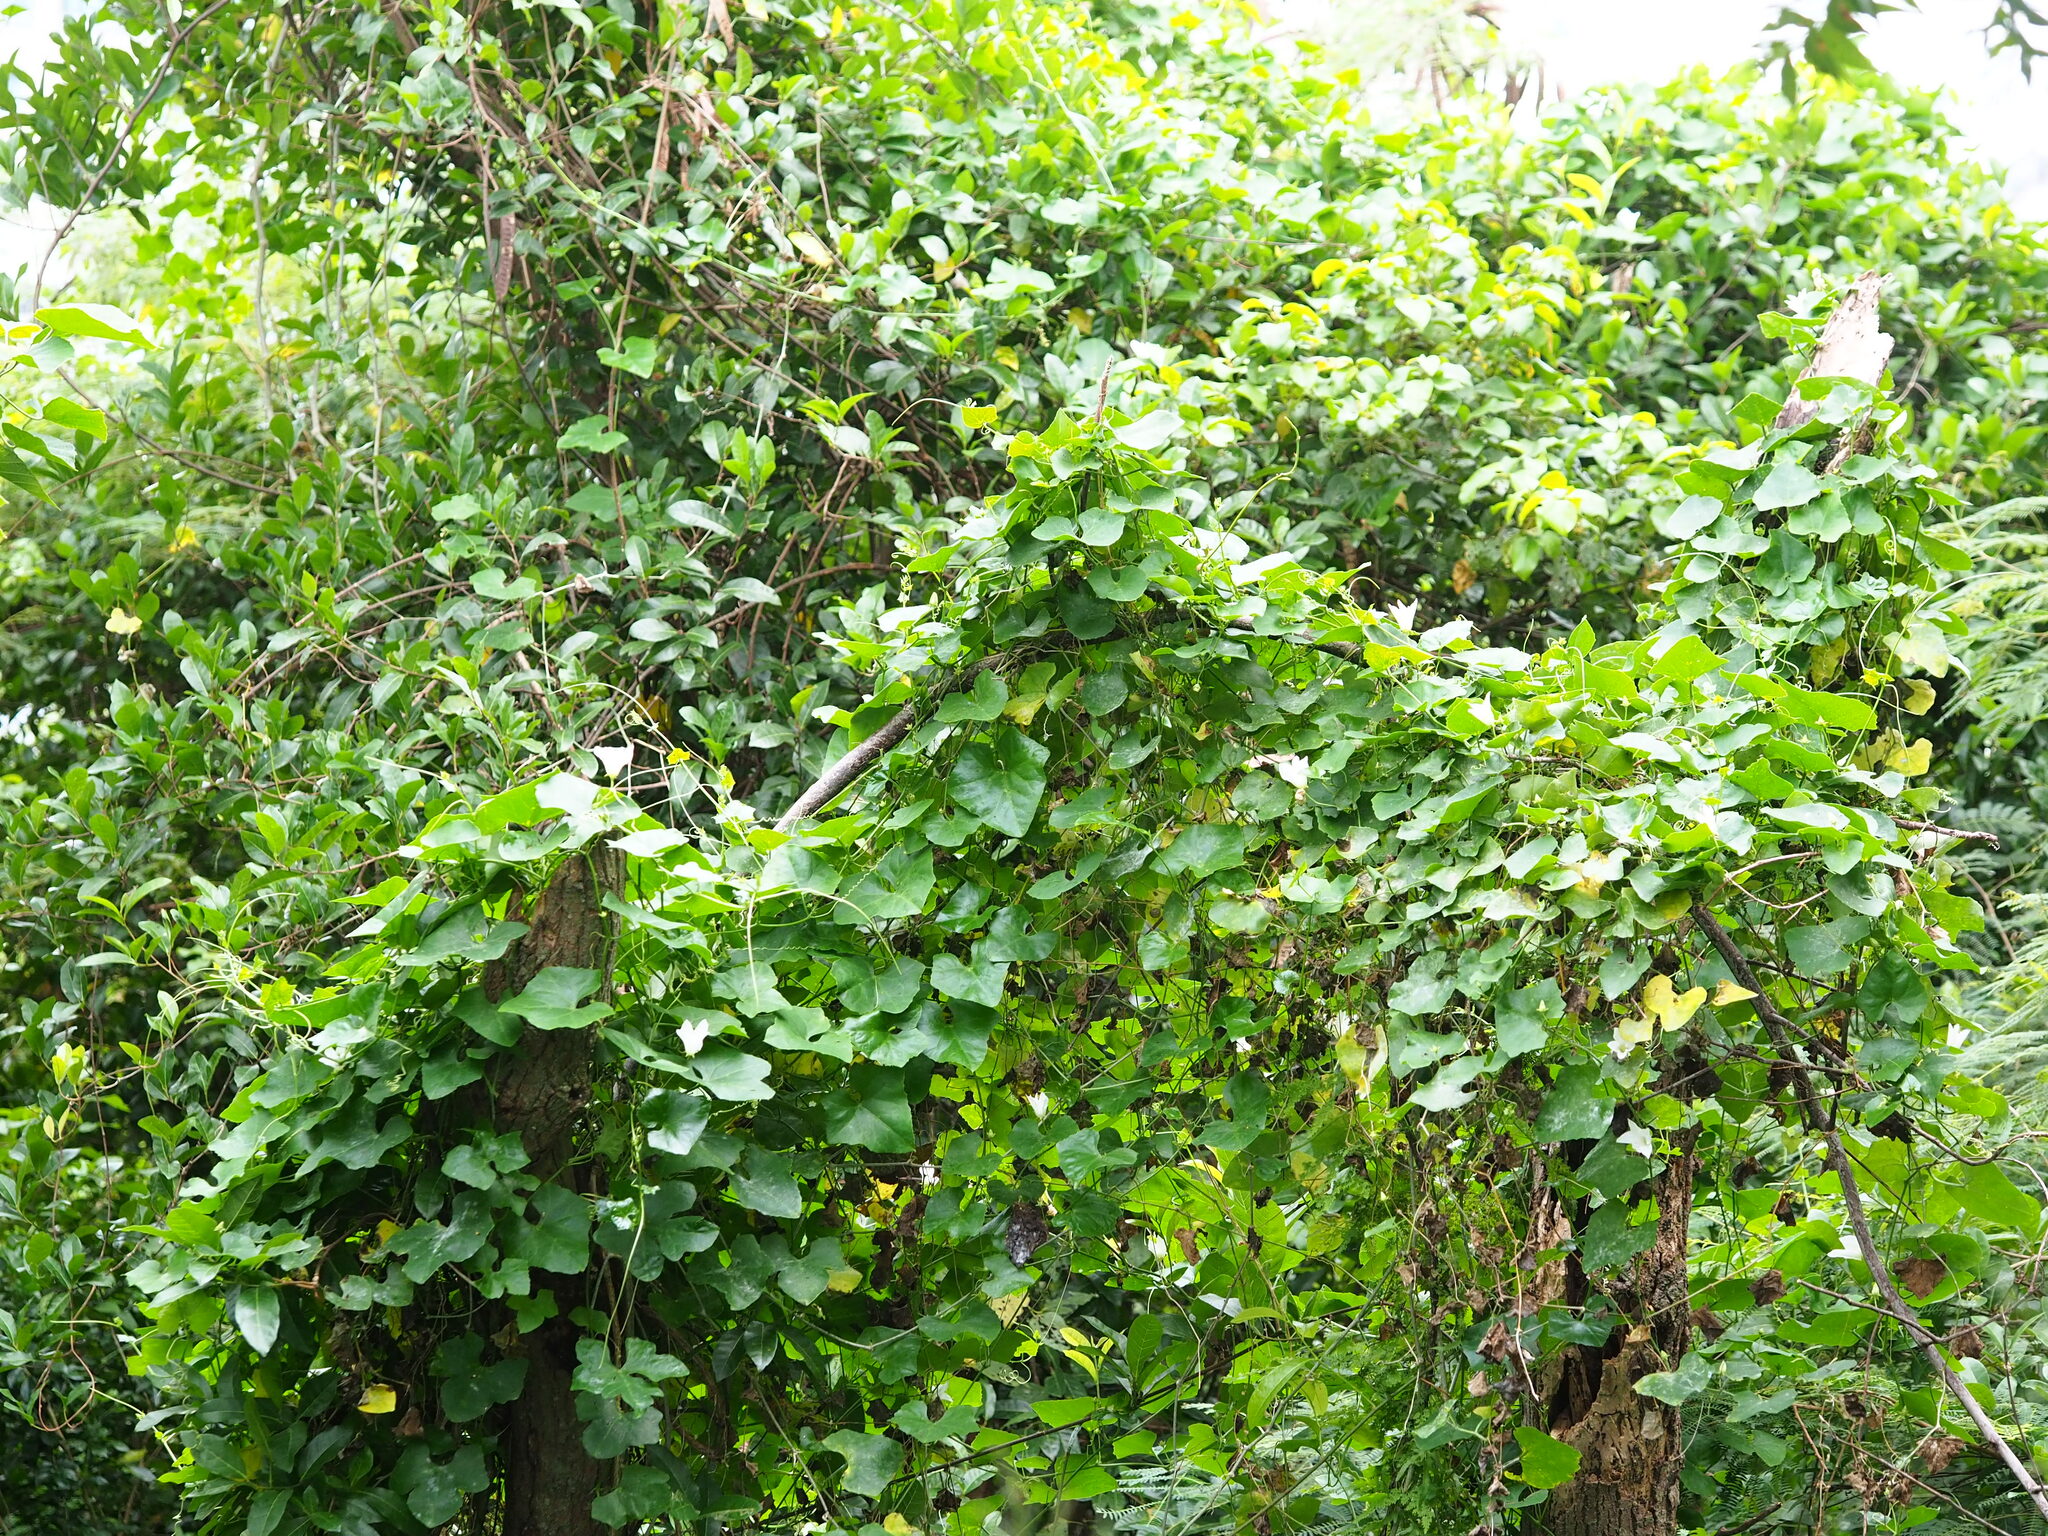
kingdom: Plantae
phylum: Tracheophyta
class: Magnoliopsida
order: Cucurbitales
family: Cucurbitaceae
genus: Coccinia
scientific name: Coccinia grandis
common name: Ivy gourd
